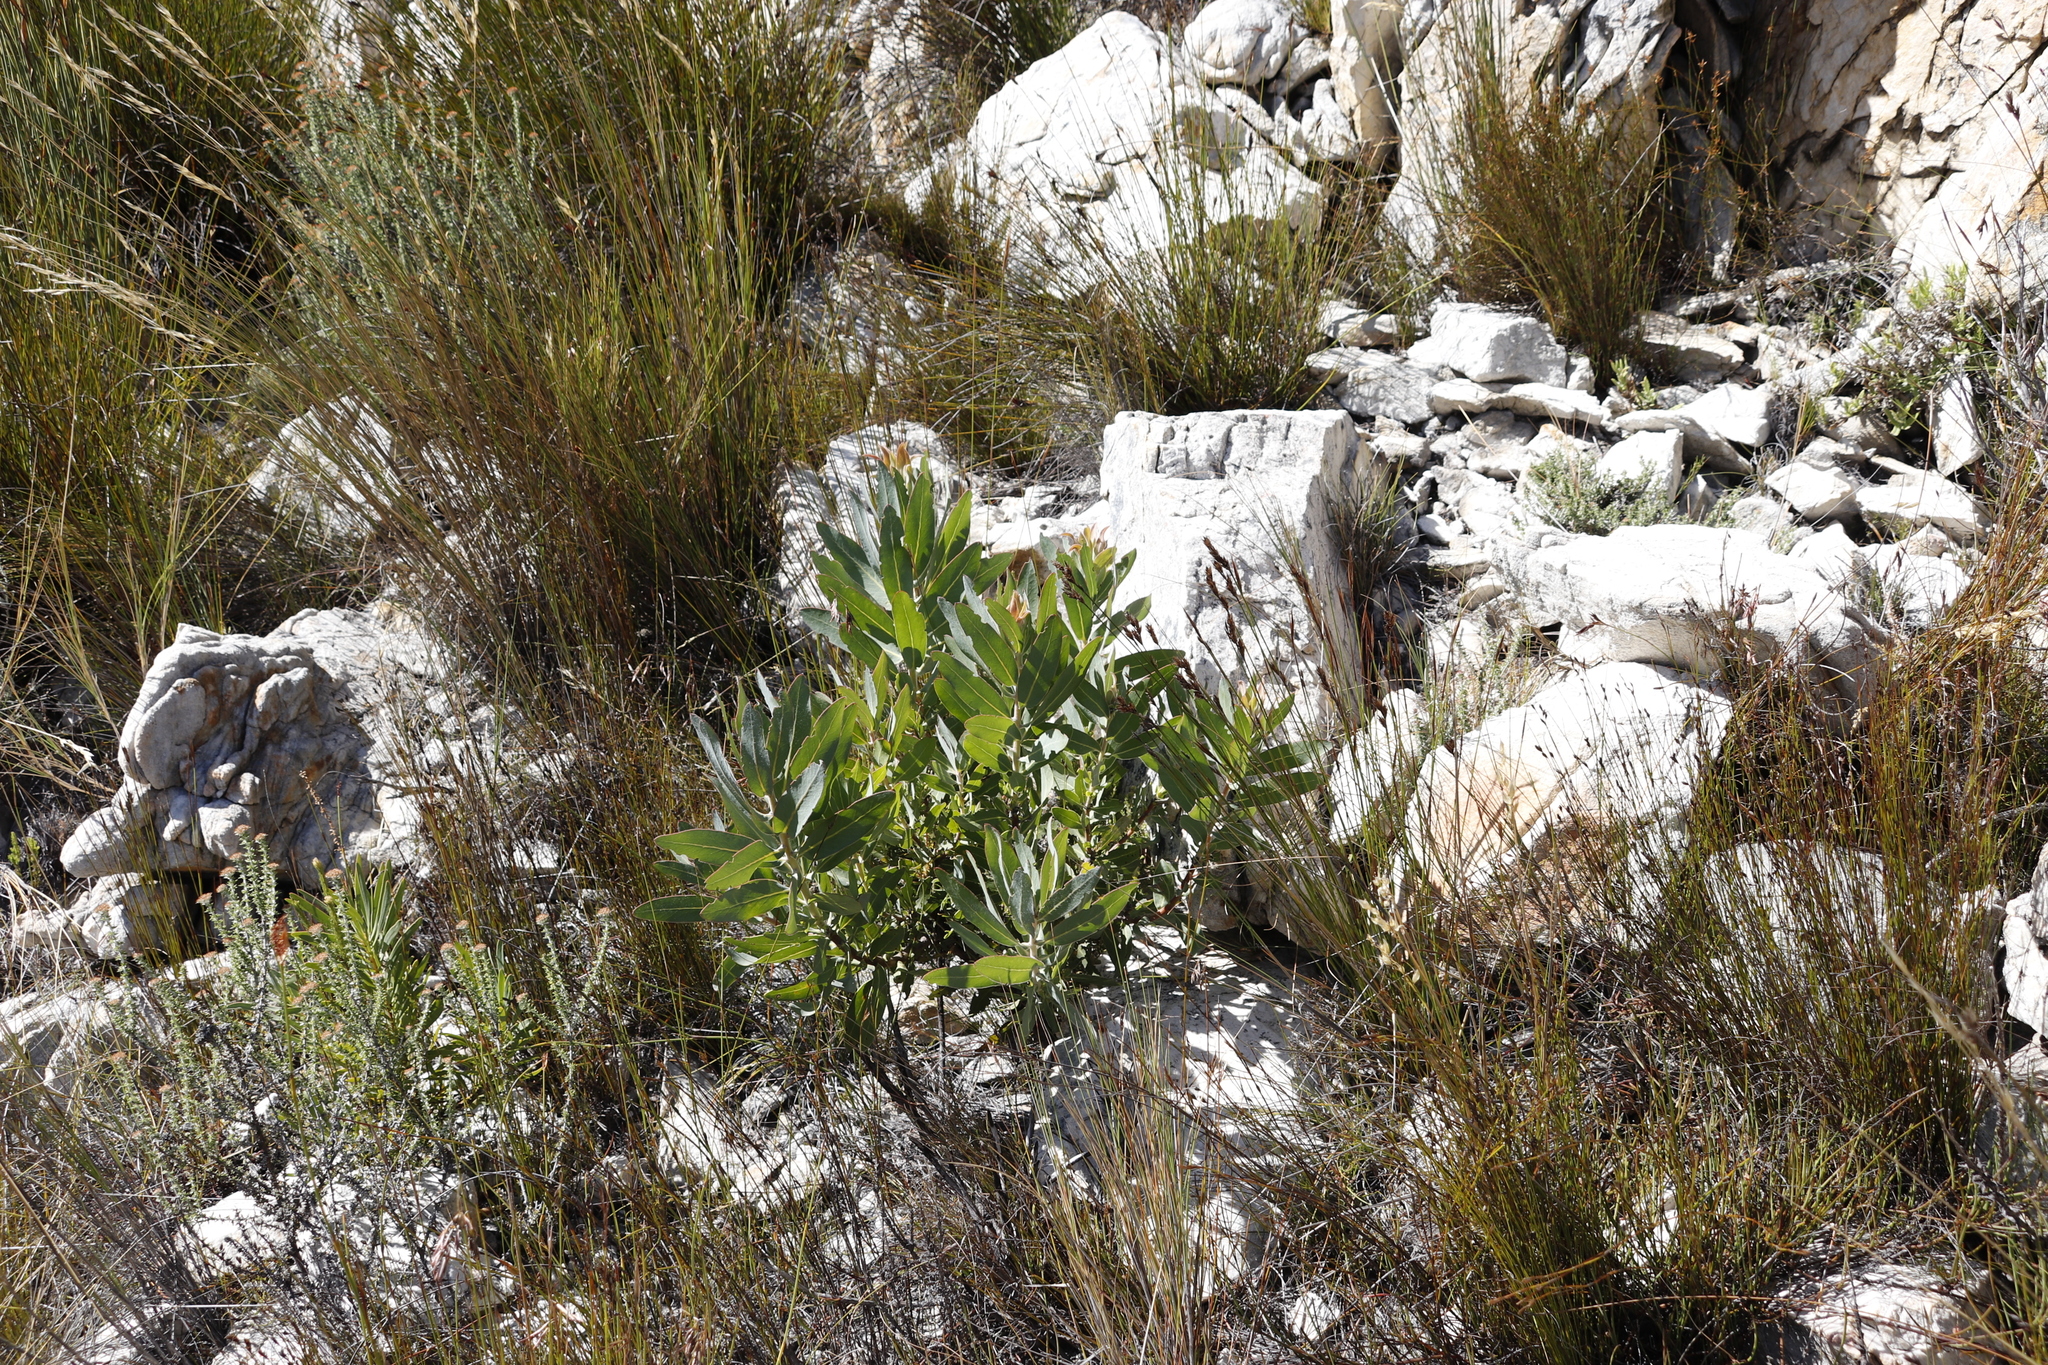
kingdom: Plantae
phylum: Tracheophyta
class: Magnoliopsida
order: Proteales
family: Proteaceae
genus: Protea
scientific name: Protea laurifolia
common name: Grey-leaf sugarbsh
